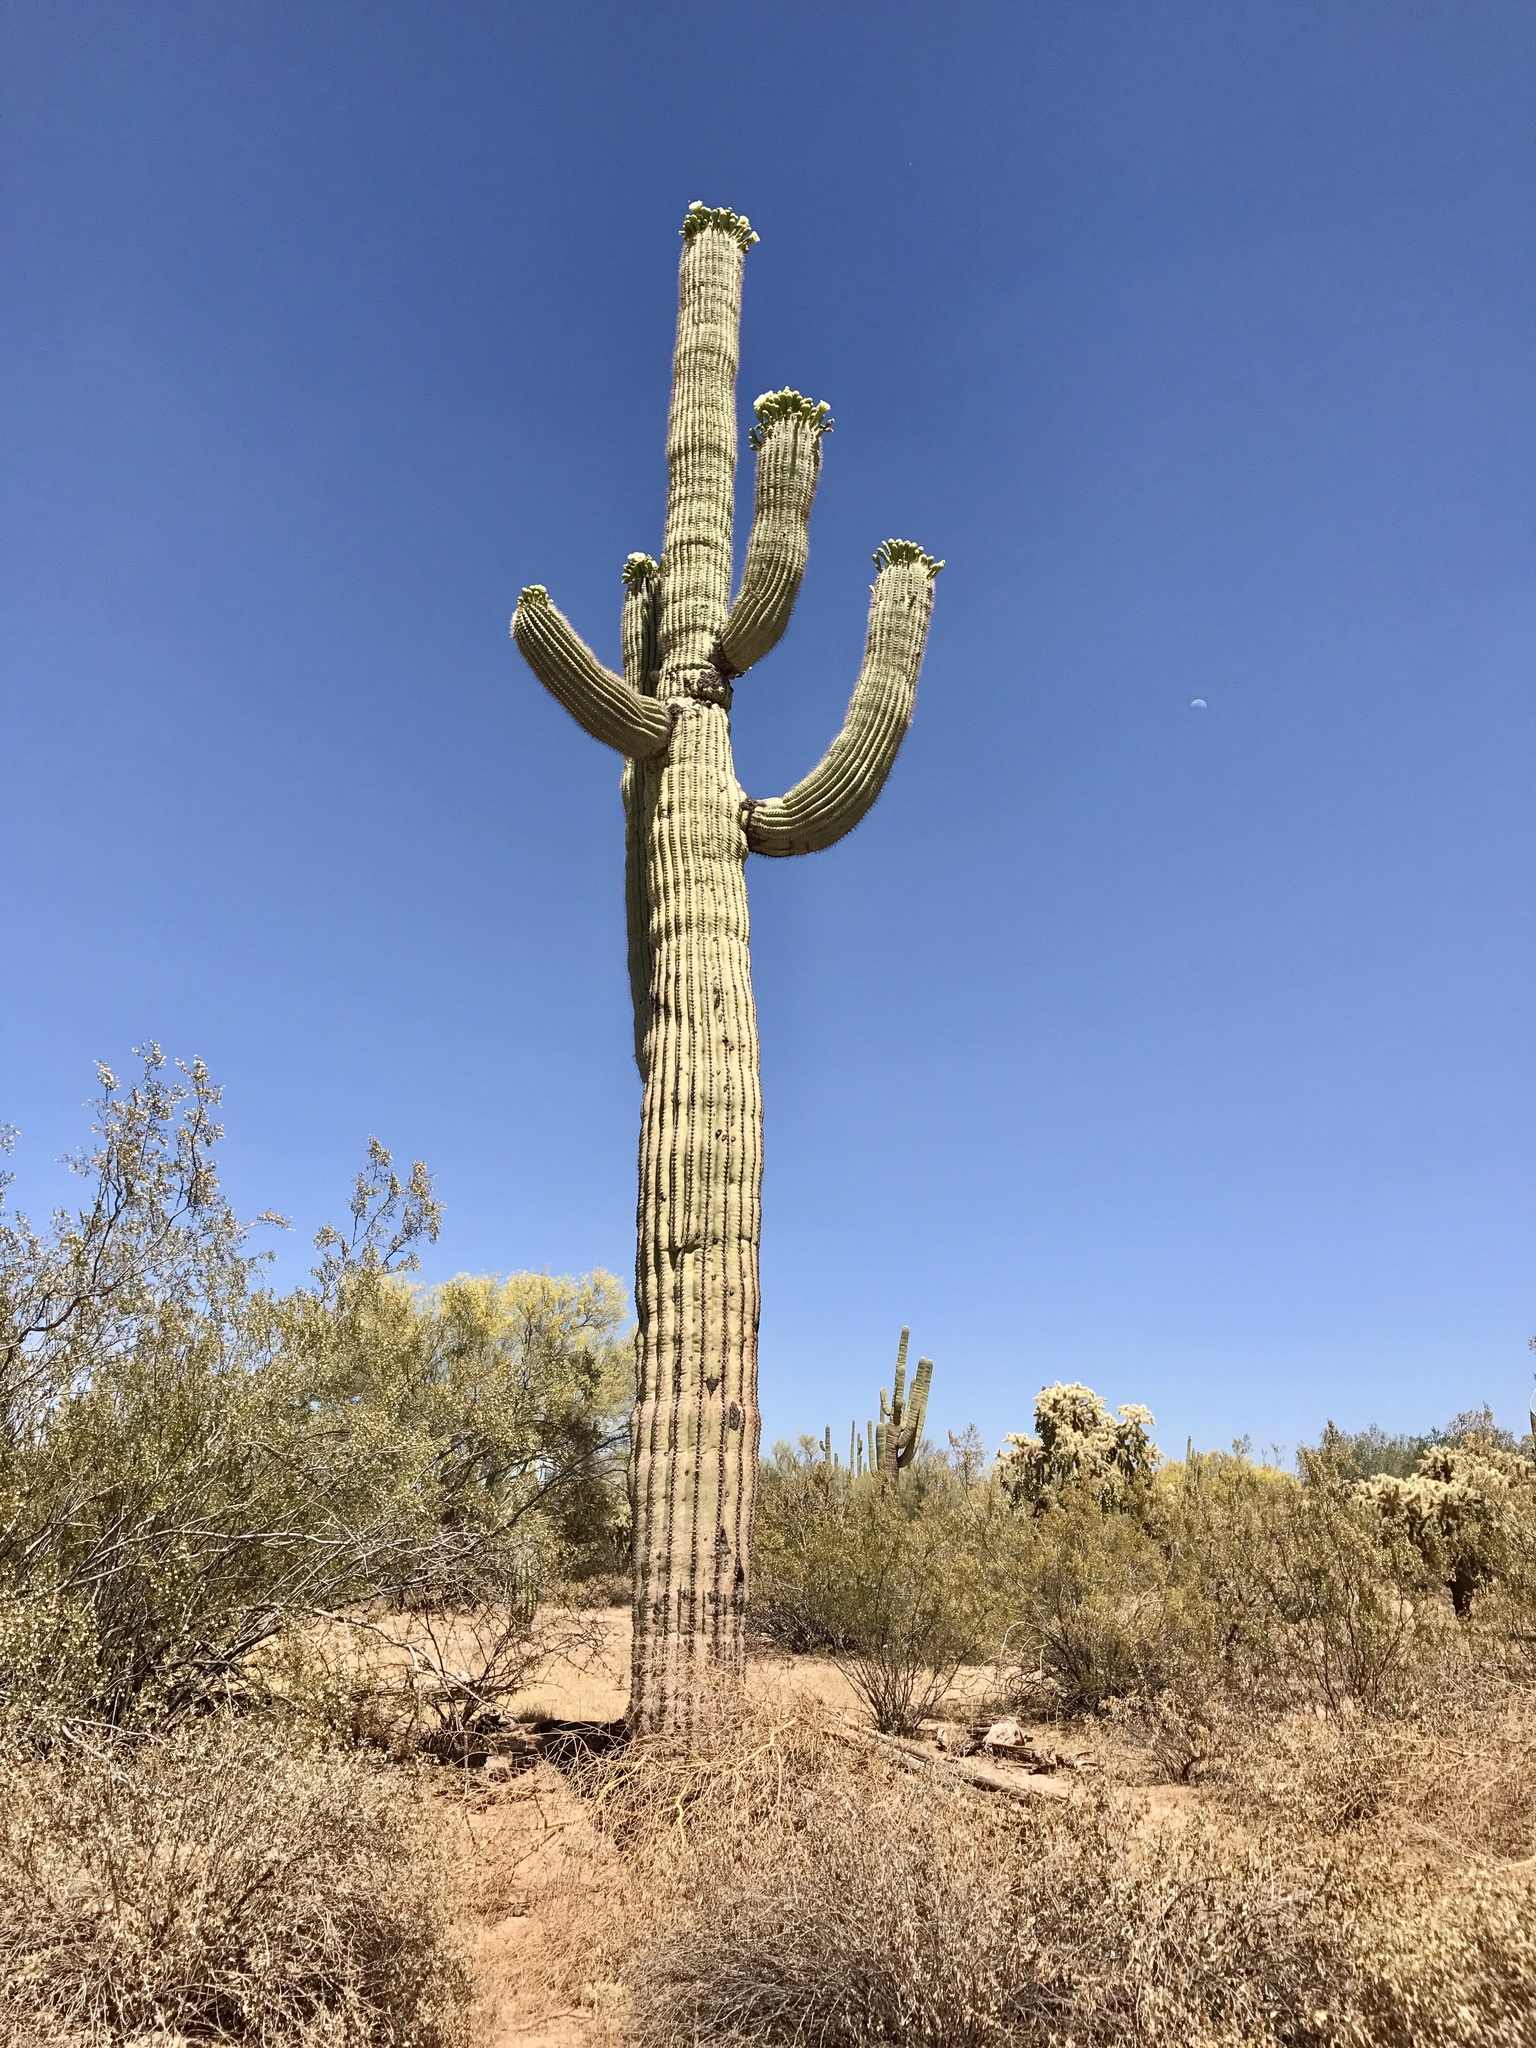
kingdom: Plantae
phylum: Tracheophyta
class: Magnoliopsida
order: Caryophyllales
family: Cactaceae
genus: Carnegiea
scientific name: Carnegiea gigantea
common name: Saguaro
